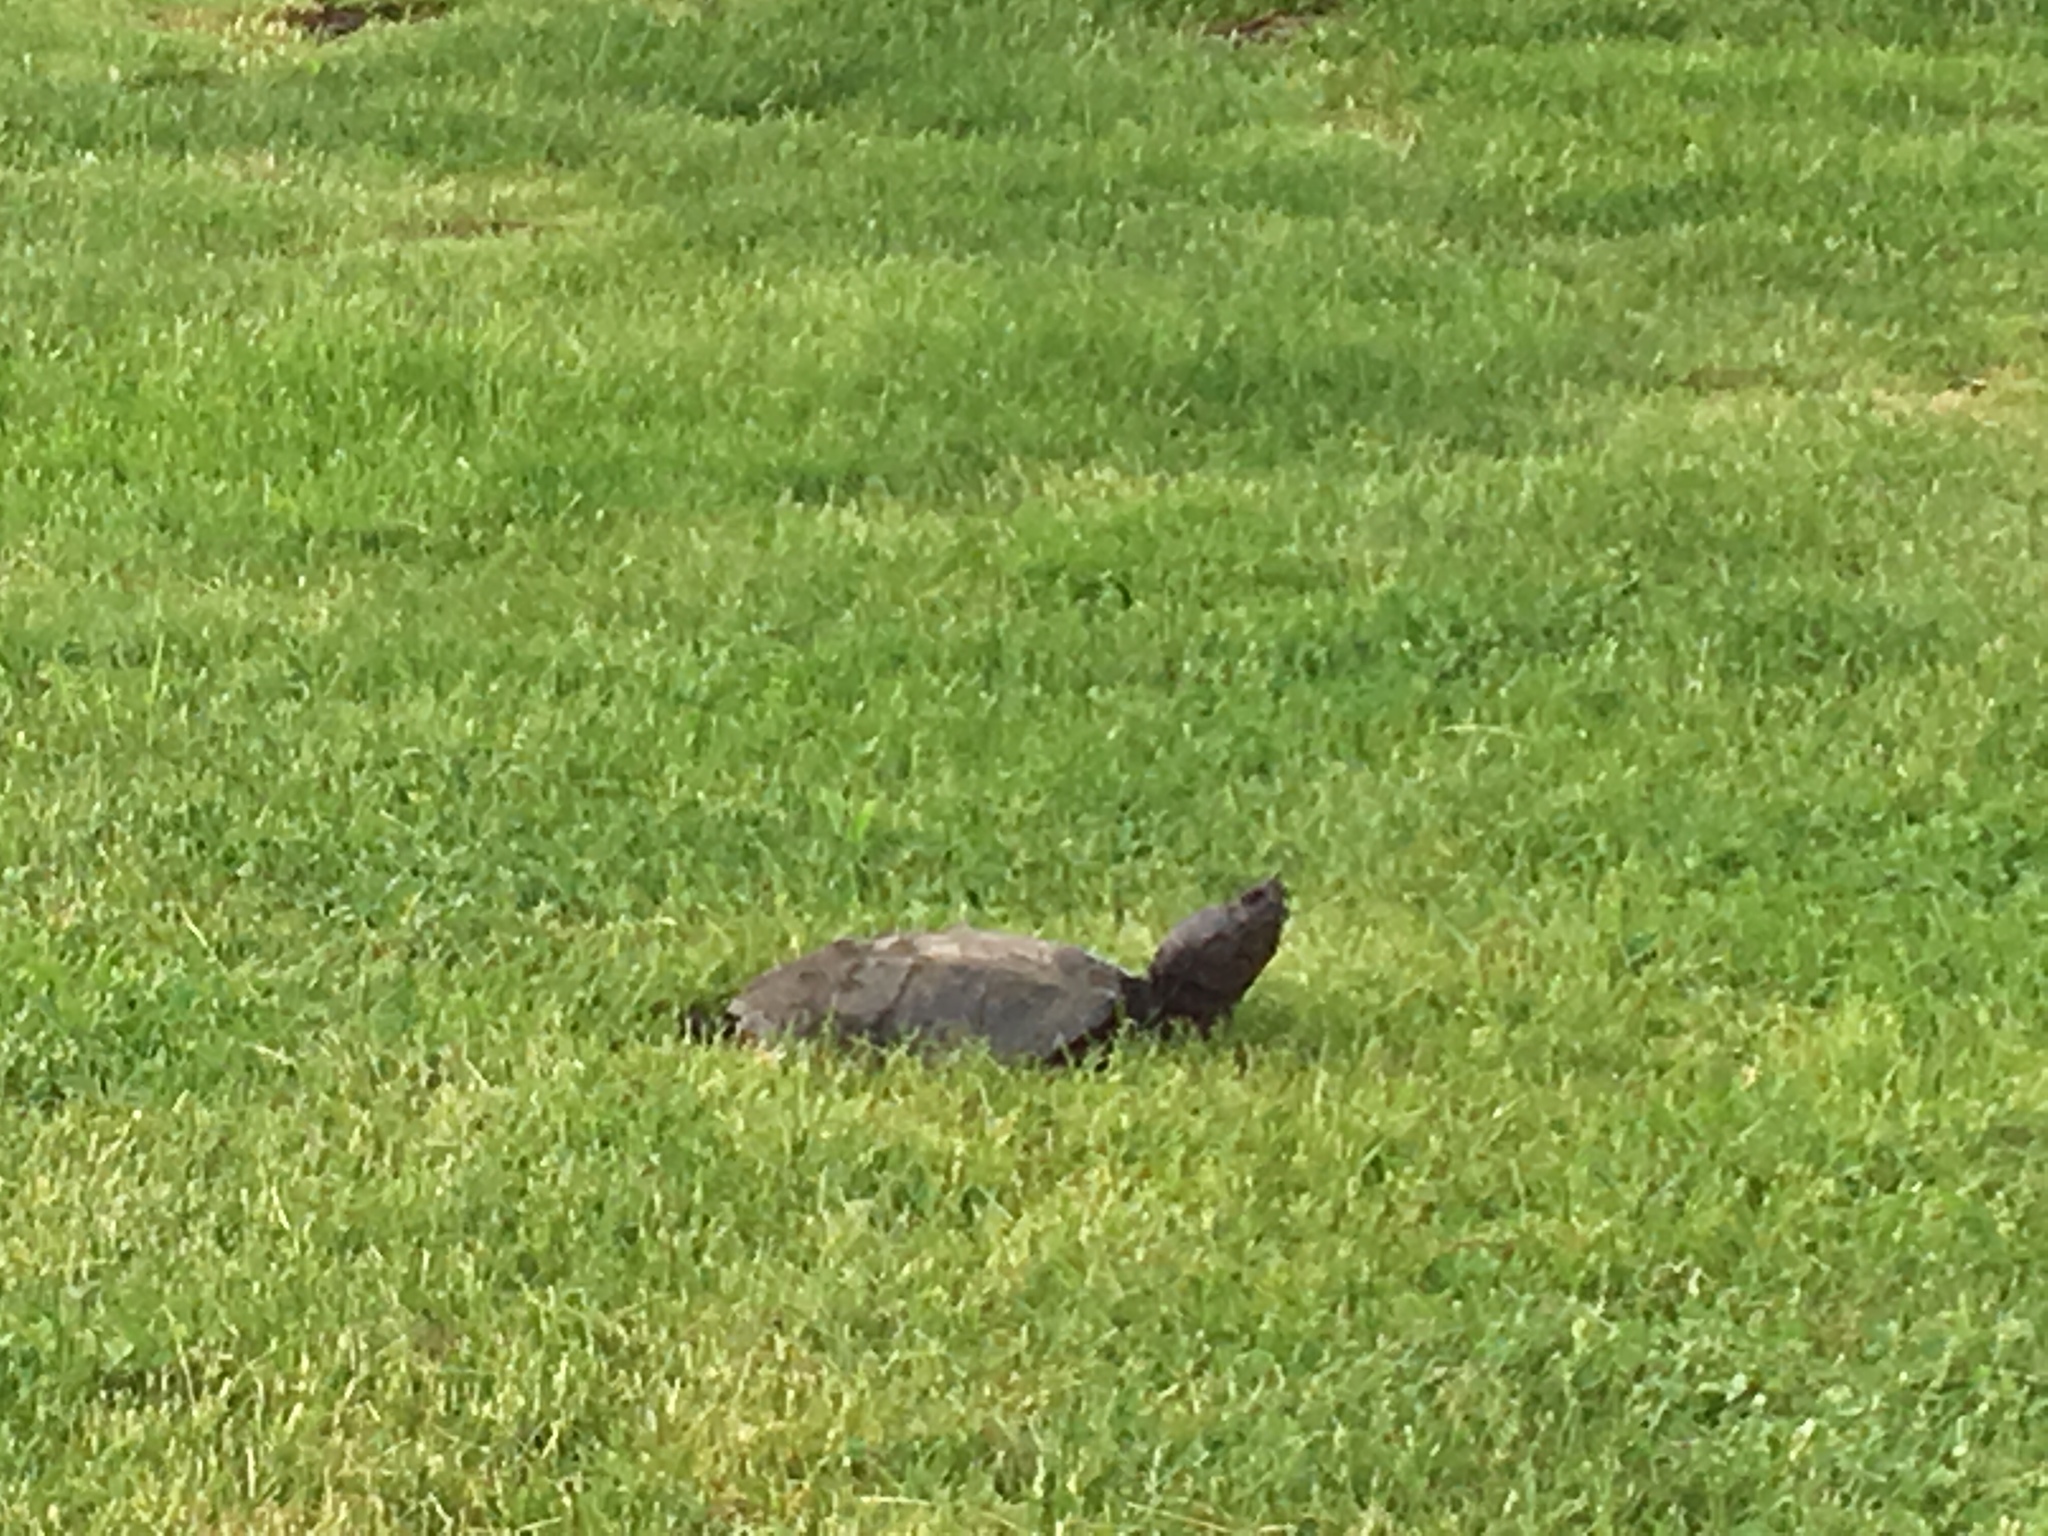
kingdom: Animalia
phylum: Chordata
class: Testudines
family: Chelydridae
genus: Chelydra
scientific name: Chelydra serpentina
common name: Common snapping turtle
